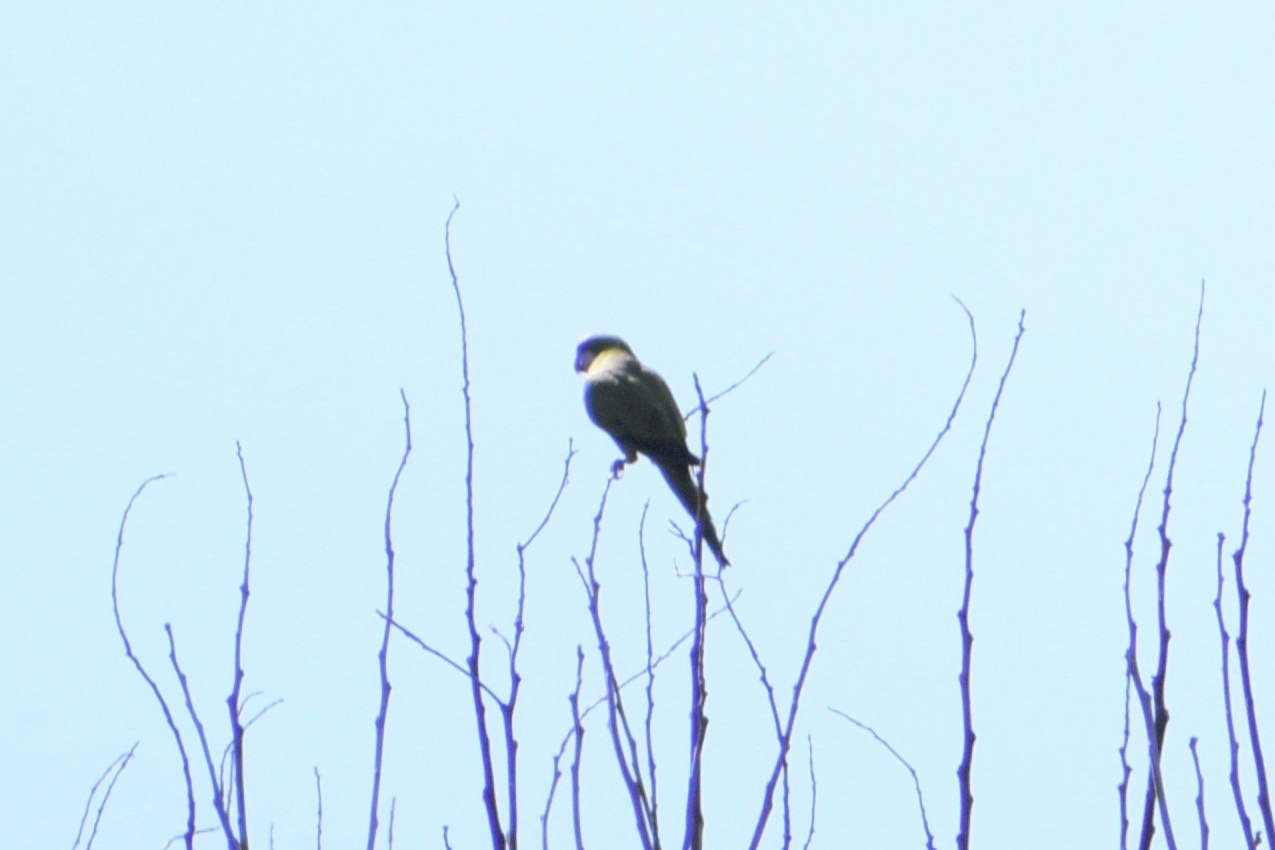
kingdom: Animalia
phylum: Chordata
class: Aves
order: Psittaciformes
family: Psittacidae
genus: Myiopsitta
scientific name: Myiopsitta monachus
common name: Monk parakeet
